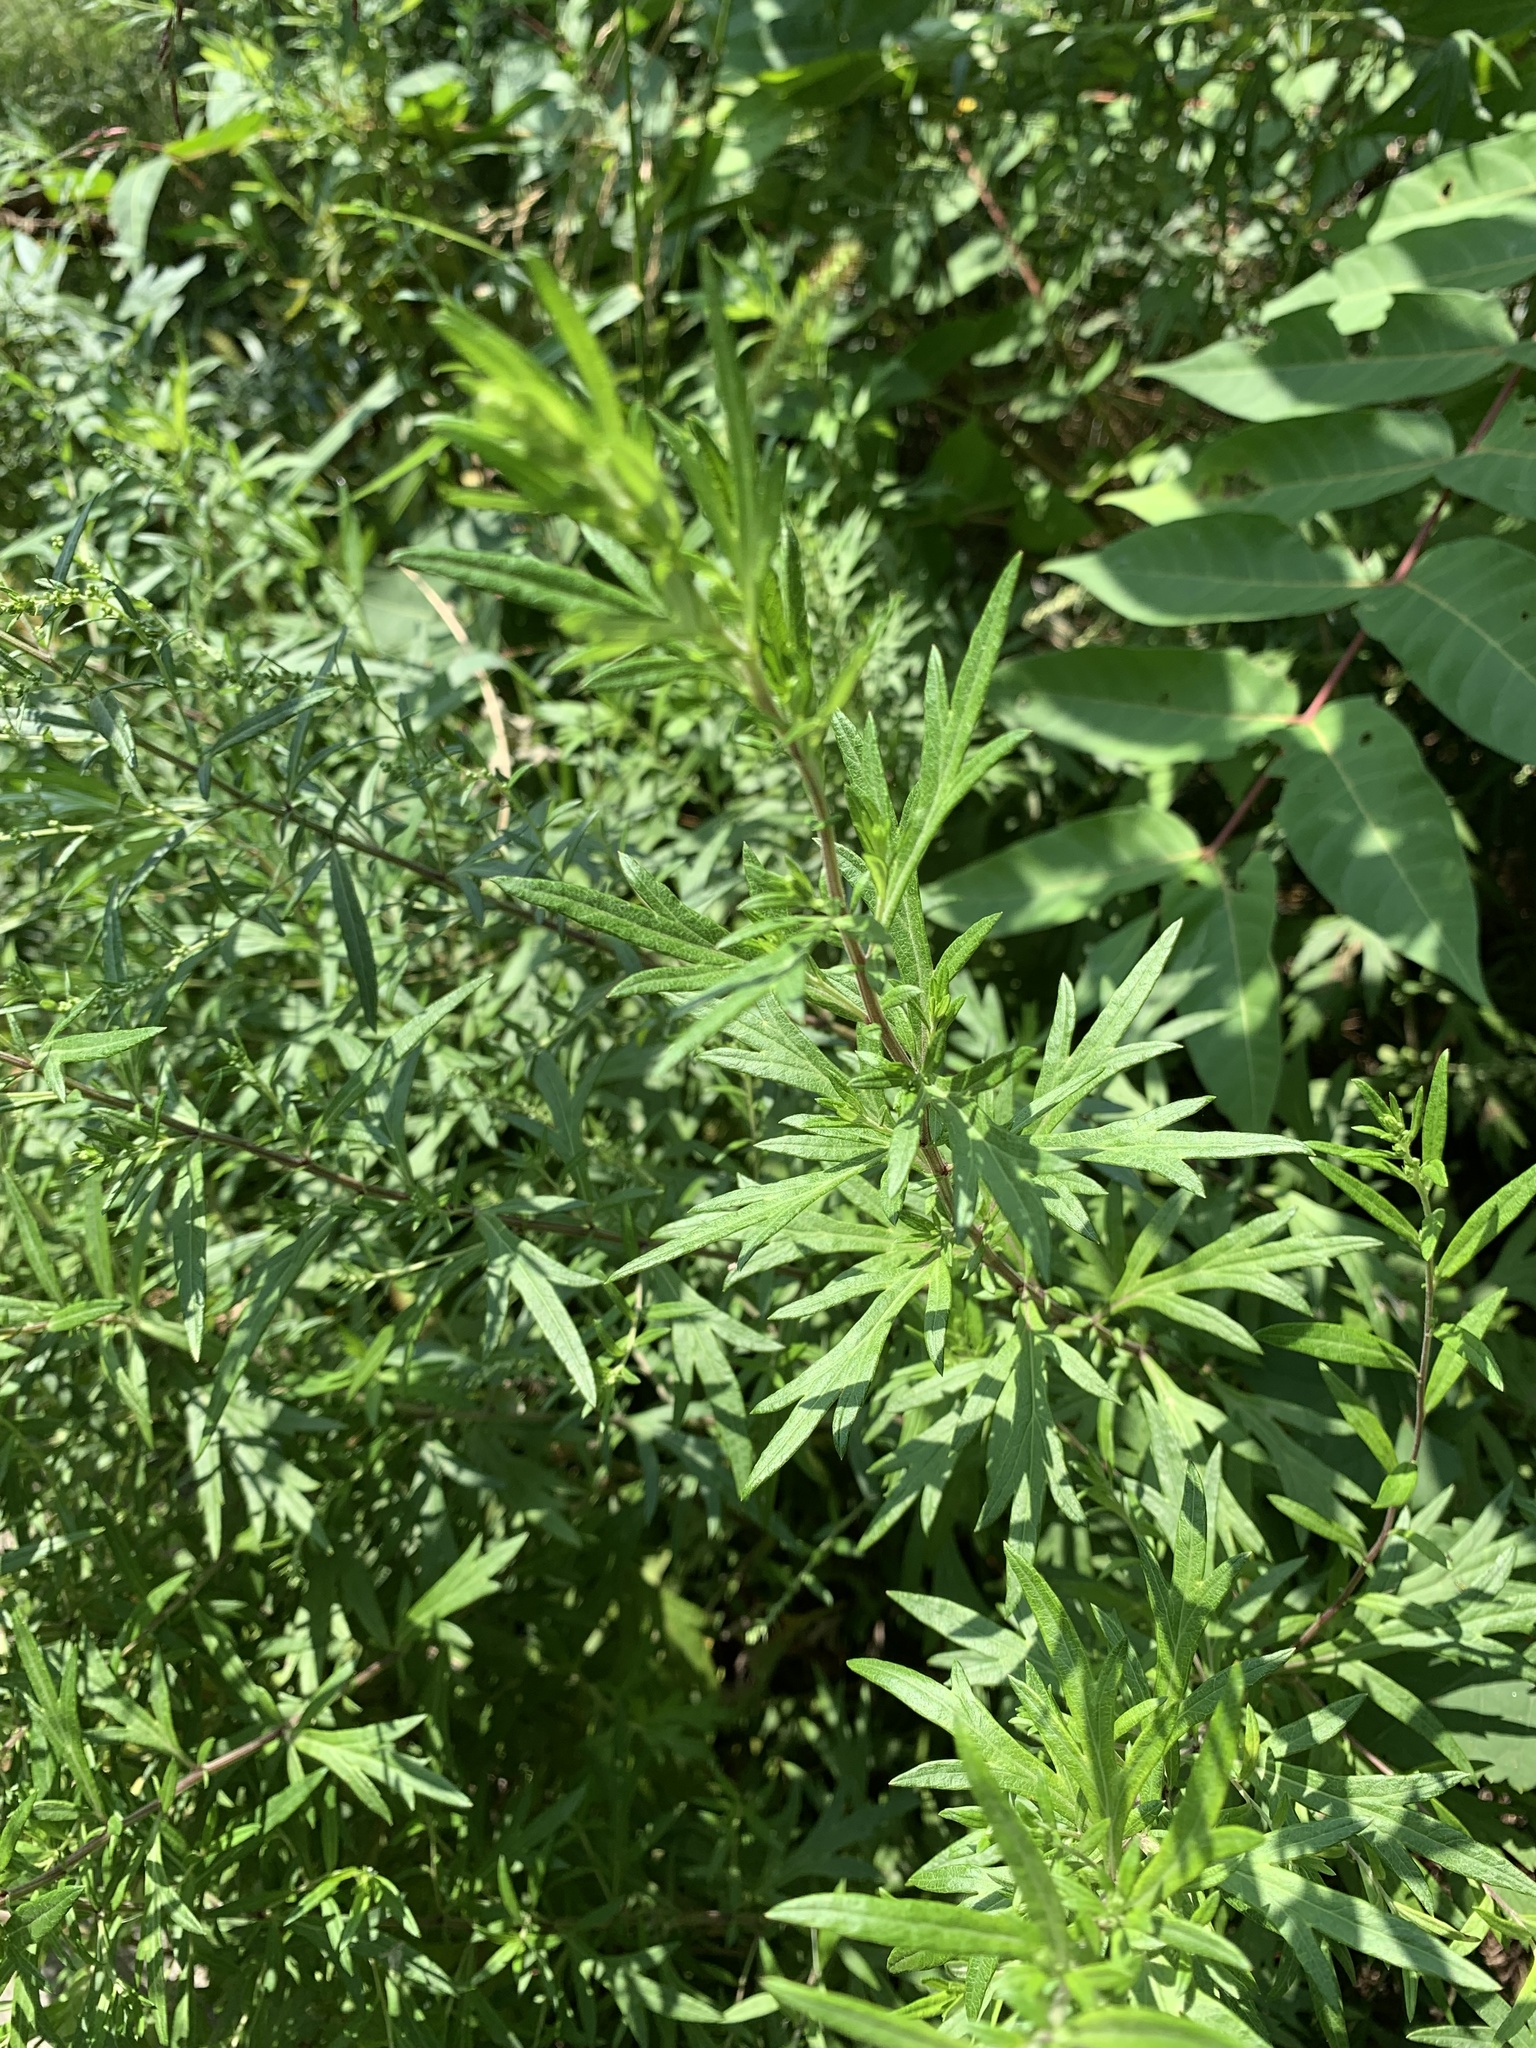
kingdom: Plantae
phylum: Tracheophyta
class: Magnoliopsida
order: Asterales
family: Asteraceae
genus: Artemisia
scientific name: Artemisia vulgaris
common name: Mugwort
